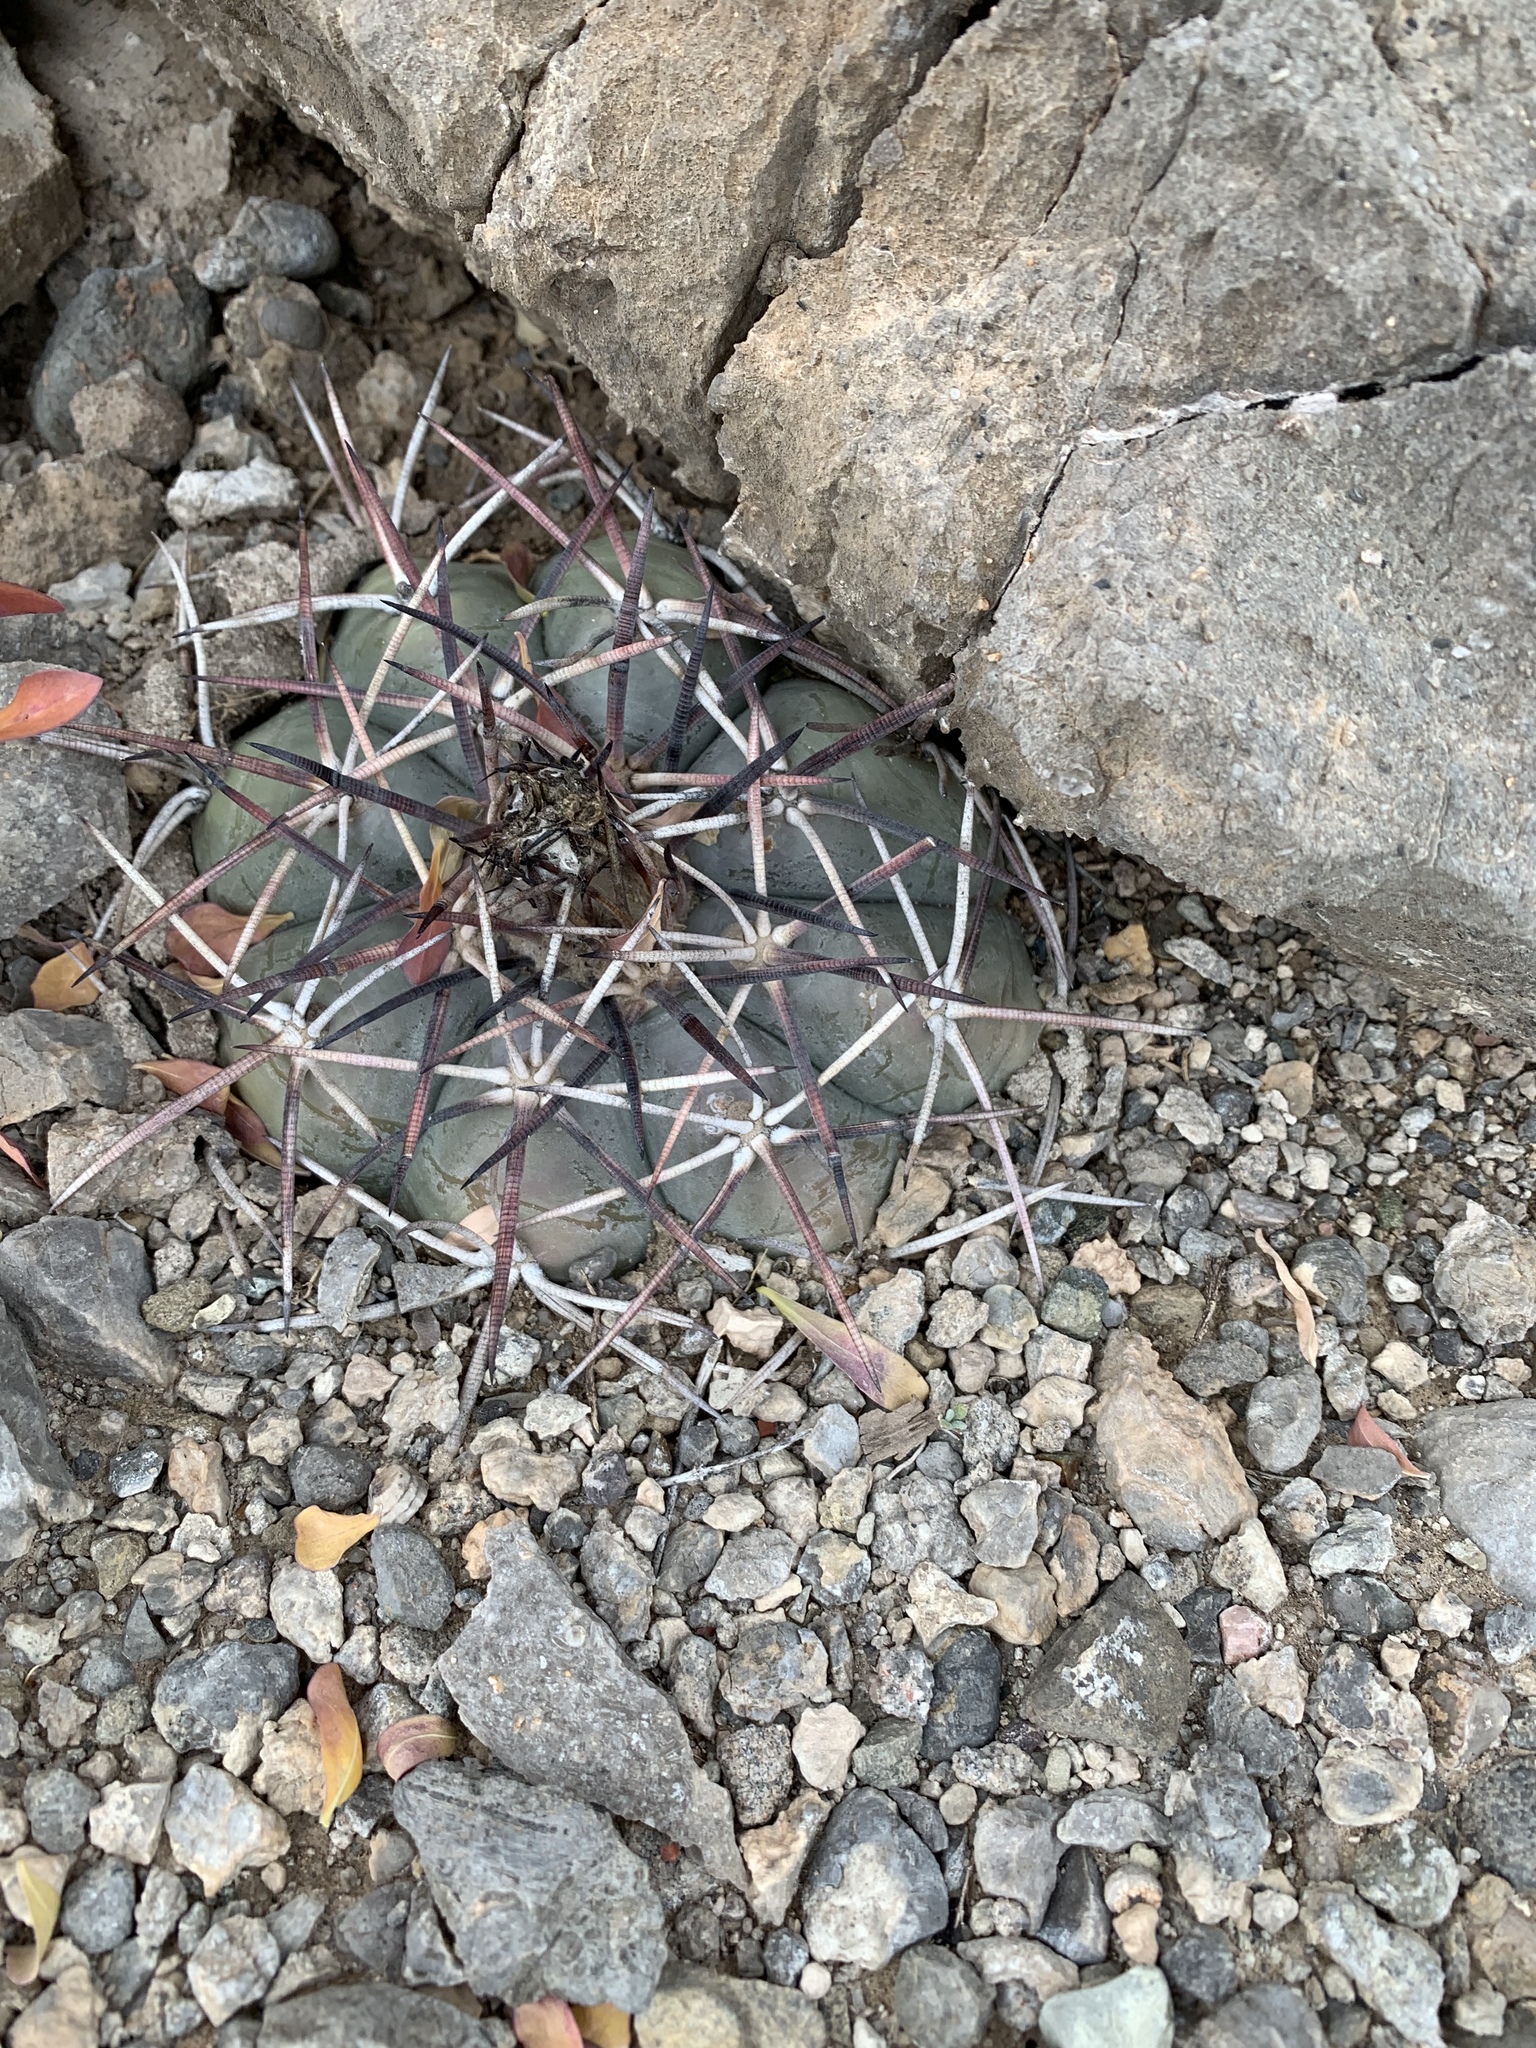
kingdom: Plantae
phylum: Tracheophyta
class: Magnoliopsida
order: Caryophyllales
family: Cactaceae
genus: Echinocactus
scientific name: Echinocactus horizonthalonius
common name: Devilshead
